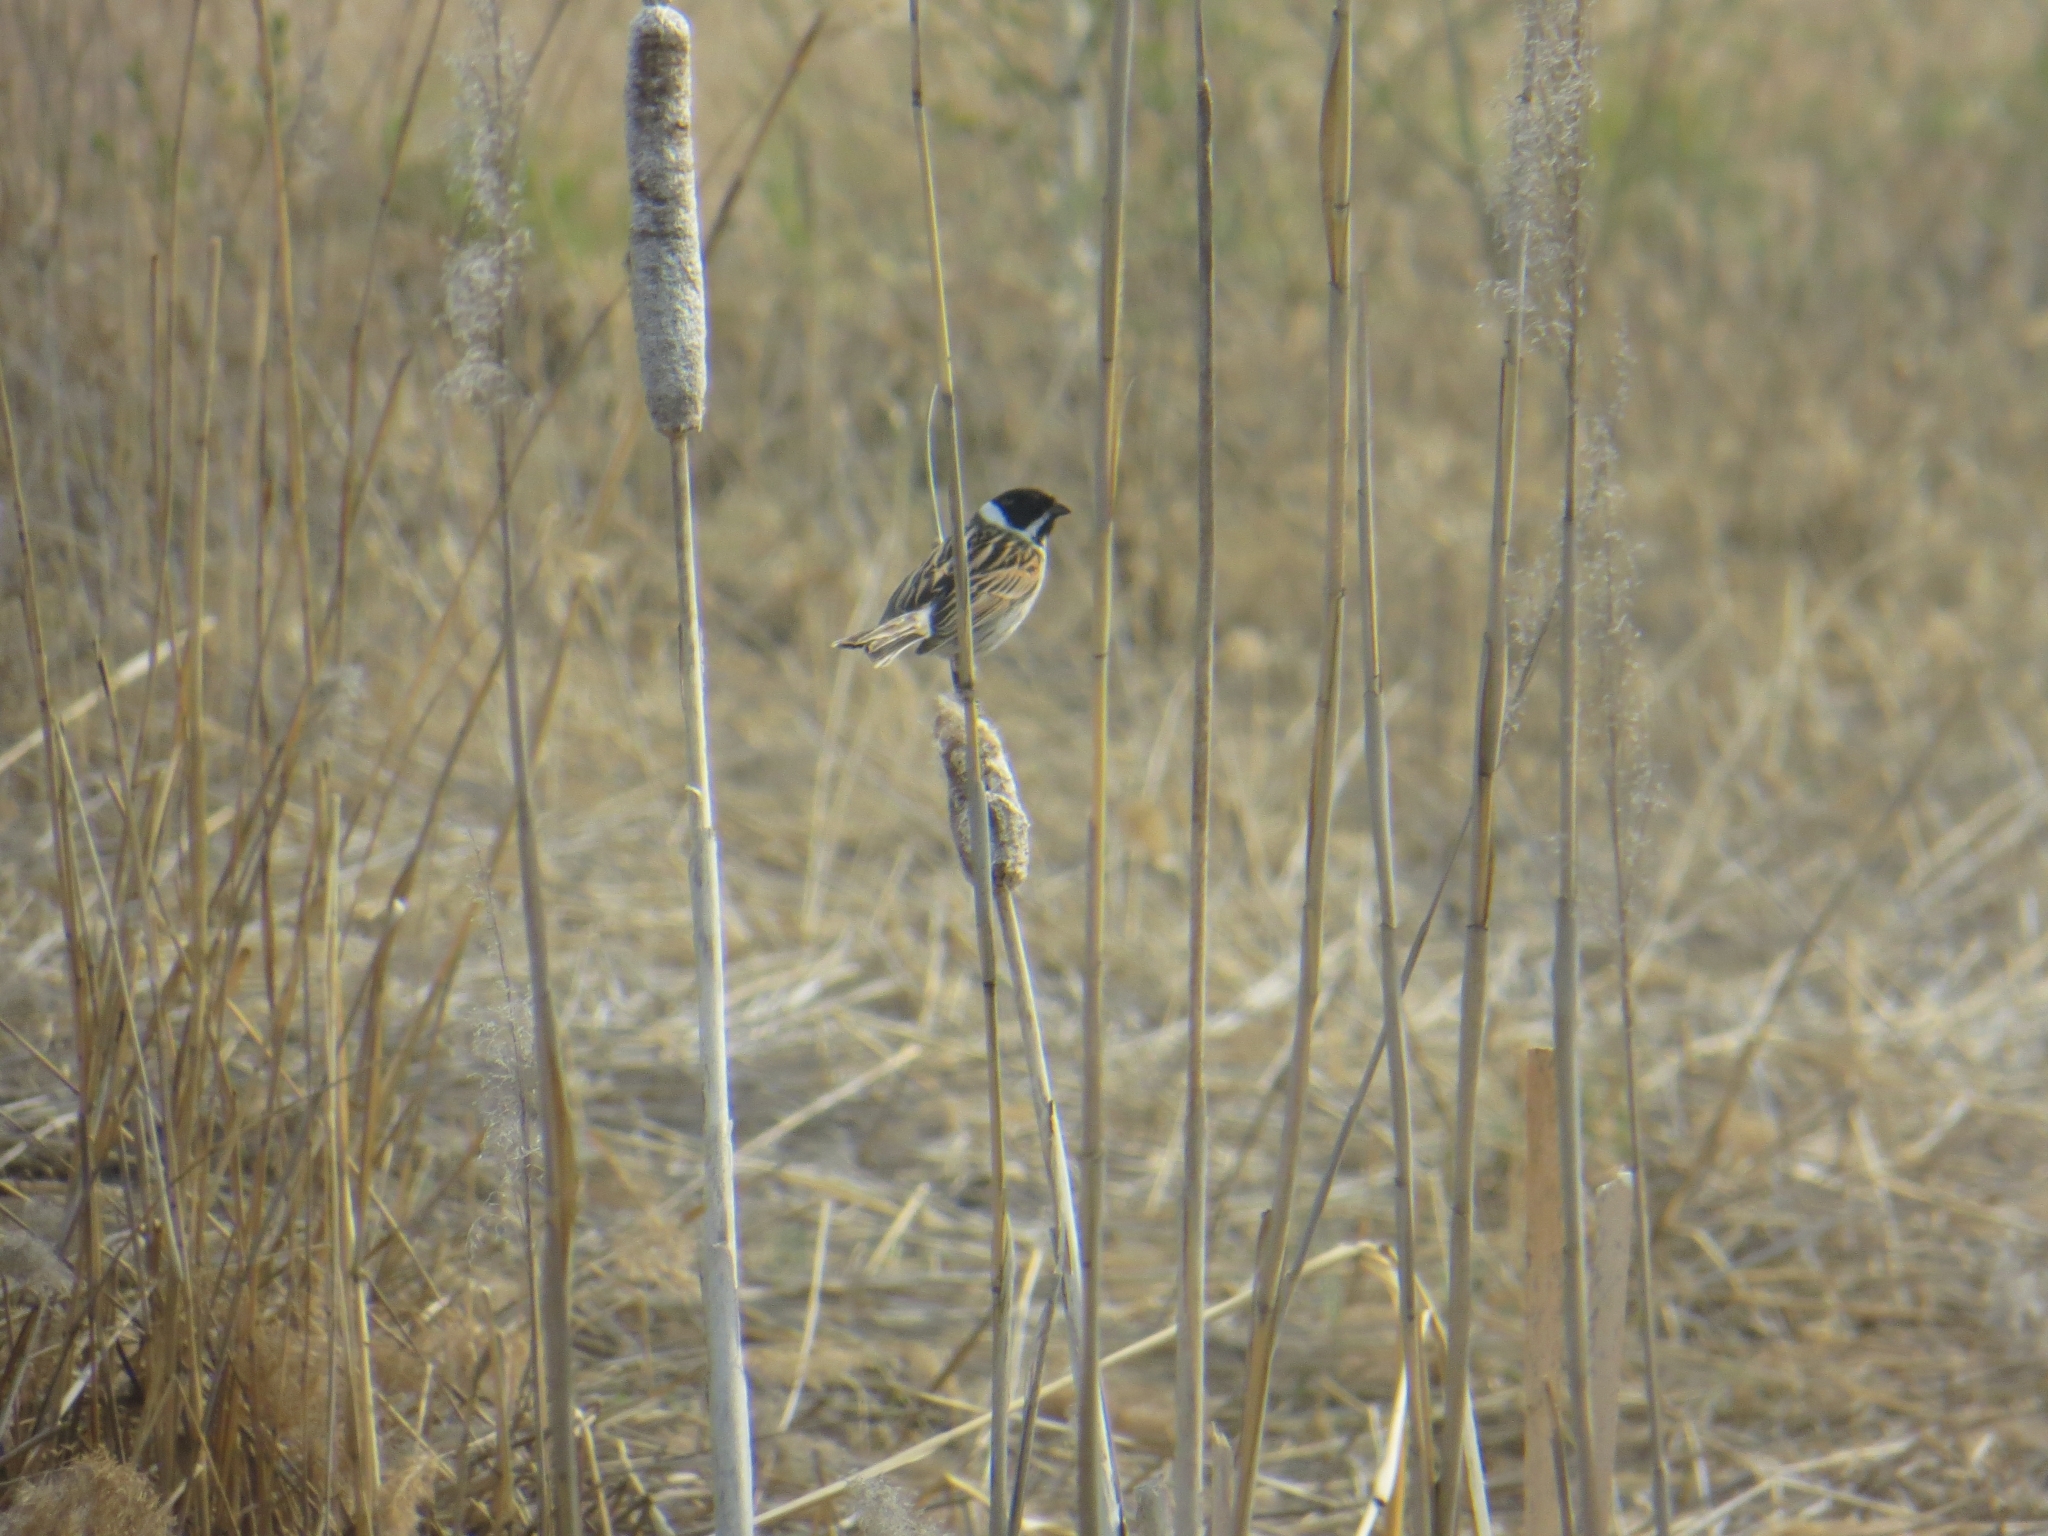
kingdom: Animalia
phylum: Chordata
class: Aves
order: Passeriformes
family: Emberizidae
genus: Emberiza
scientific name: Emberiza schoeniclus
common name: Reed bunting
